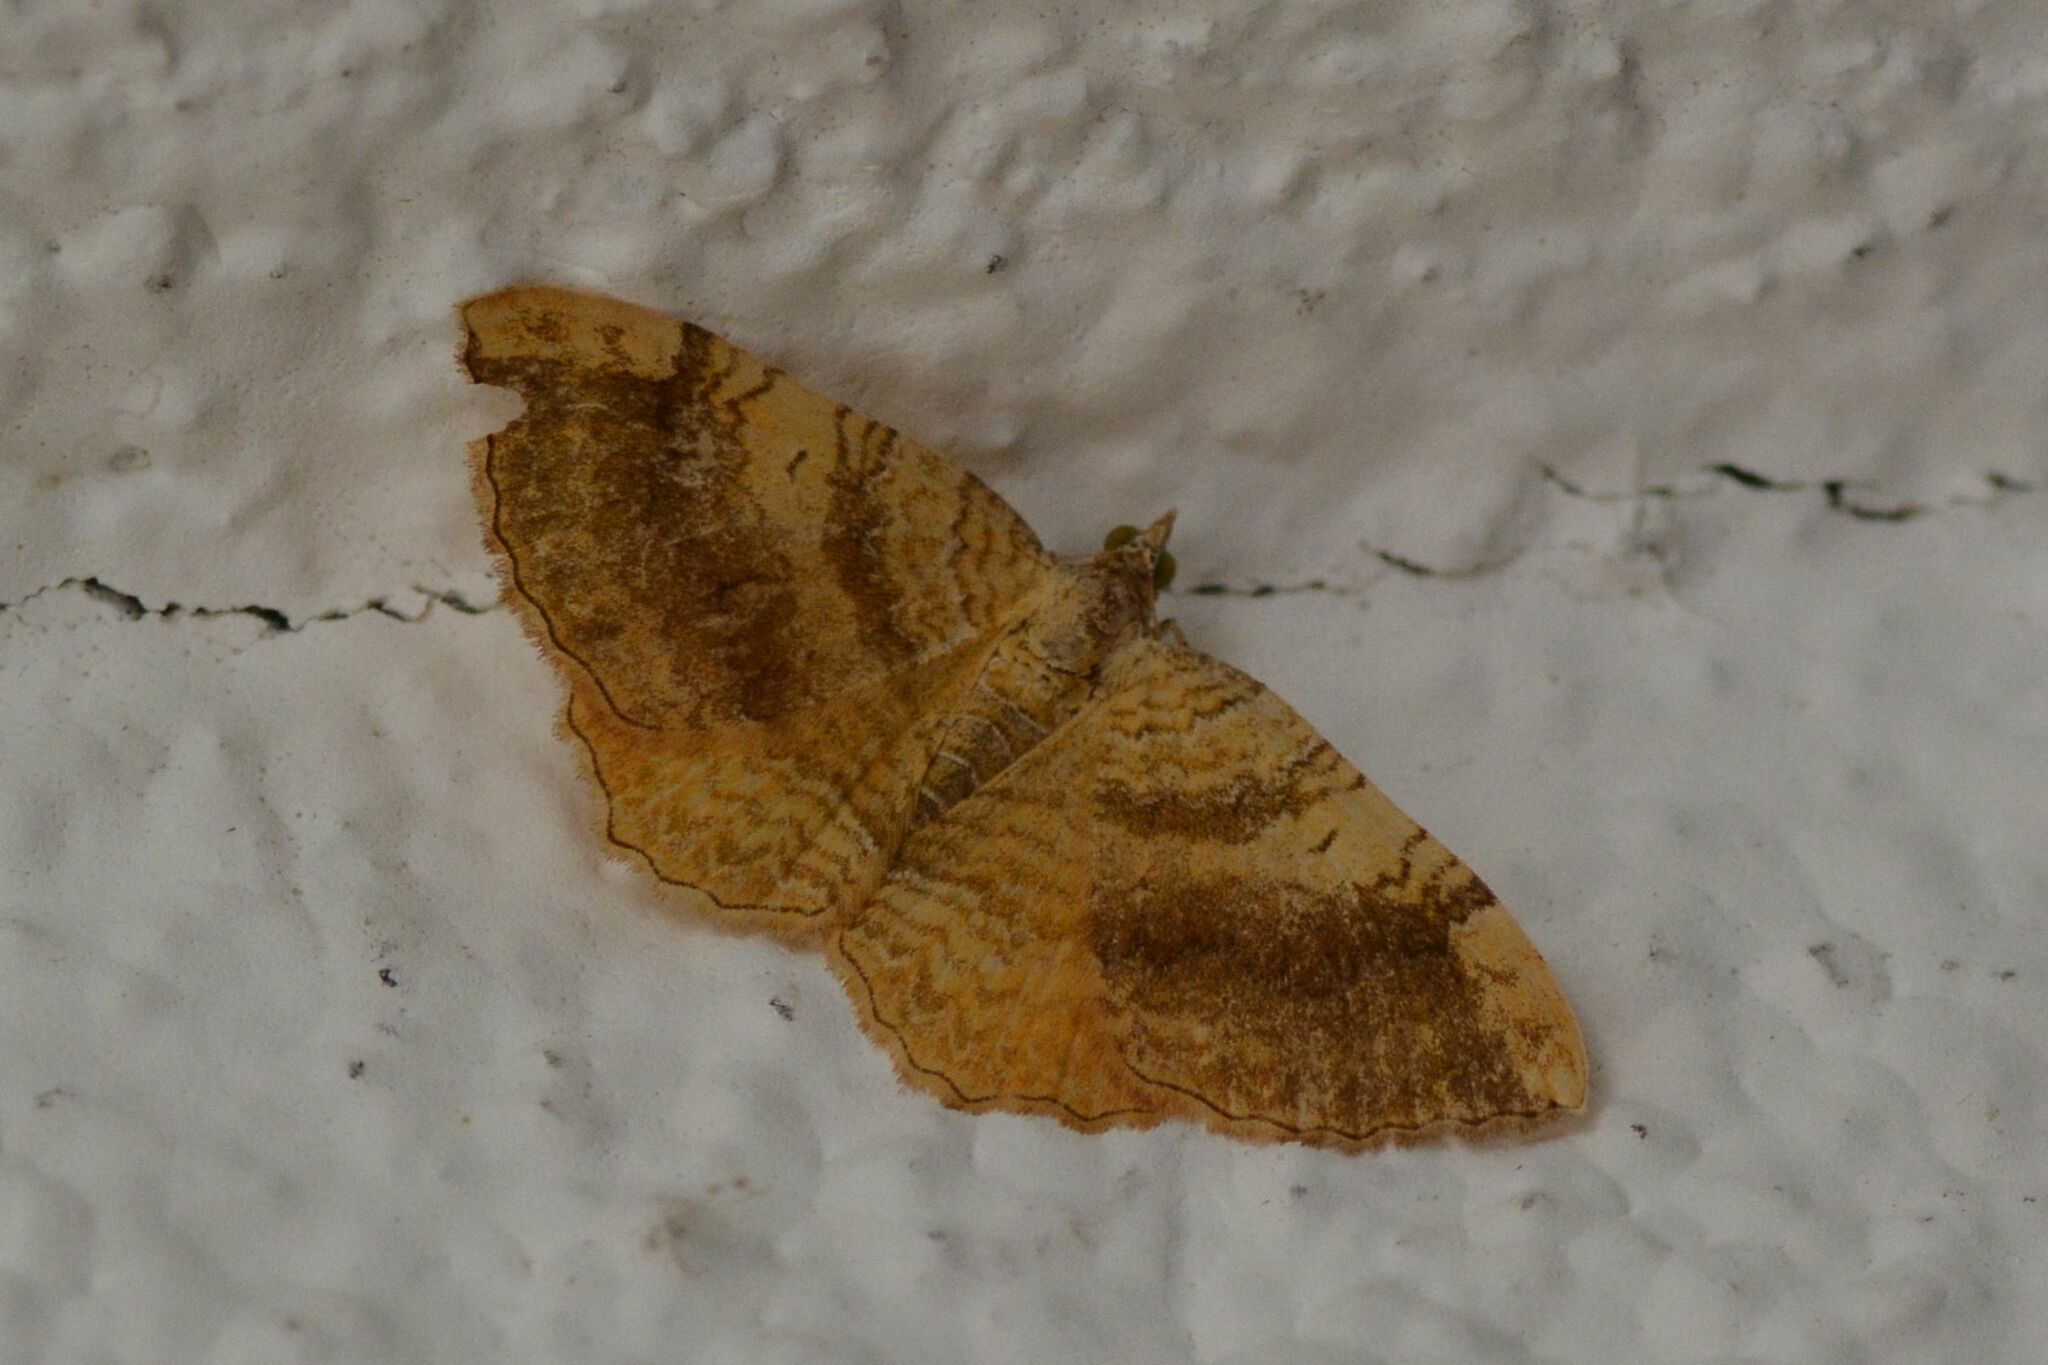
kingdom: Animalia
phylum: Arthropoda
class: Insecta
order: Lepidoptera
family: Geometridae
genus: Camptogramma
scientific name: Camptogramma bilineata
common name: Yellow shell
